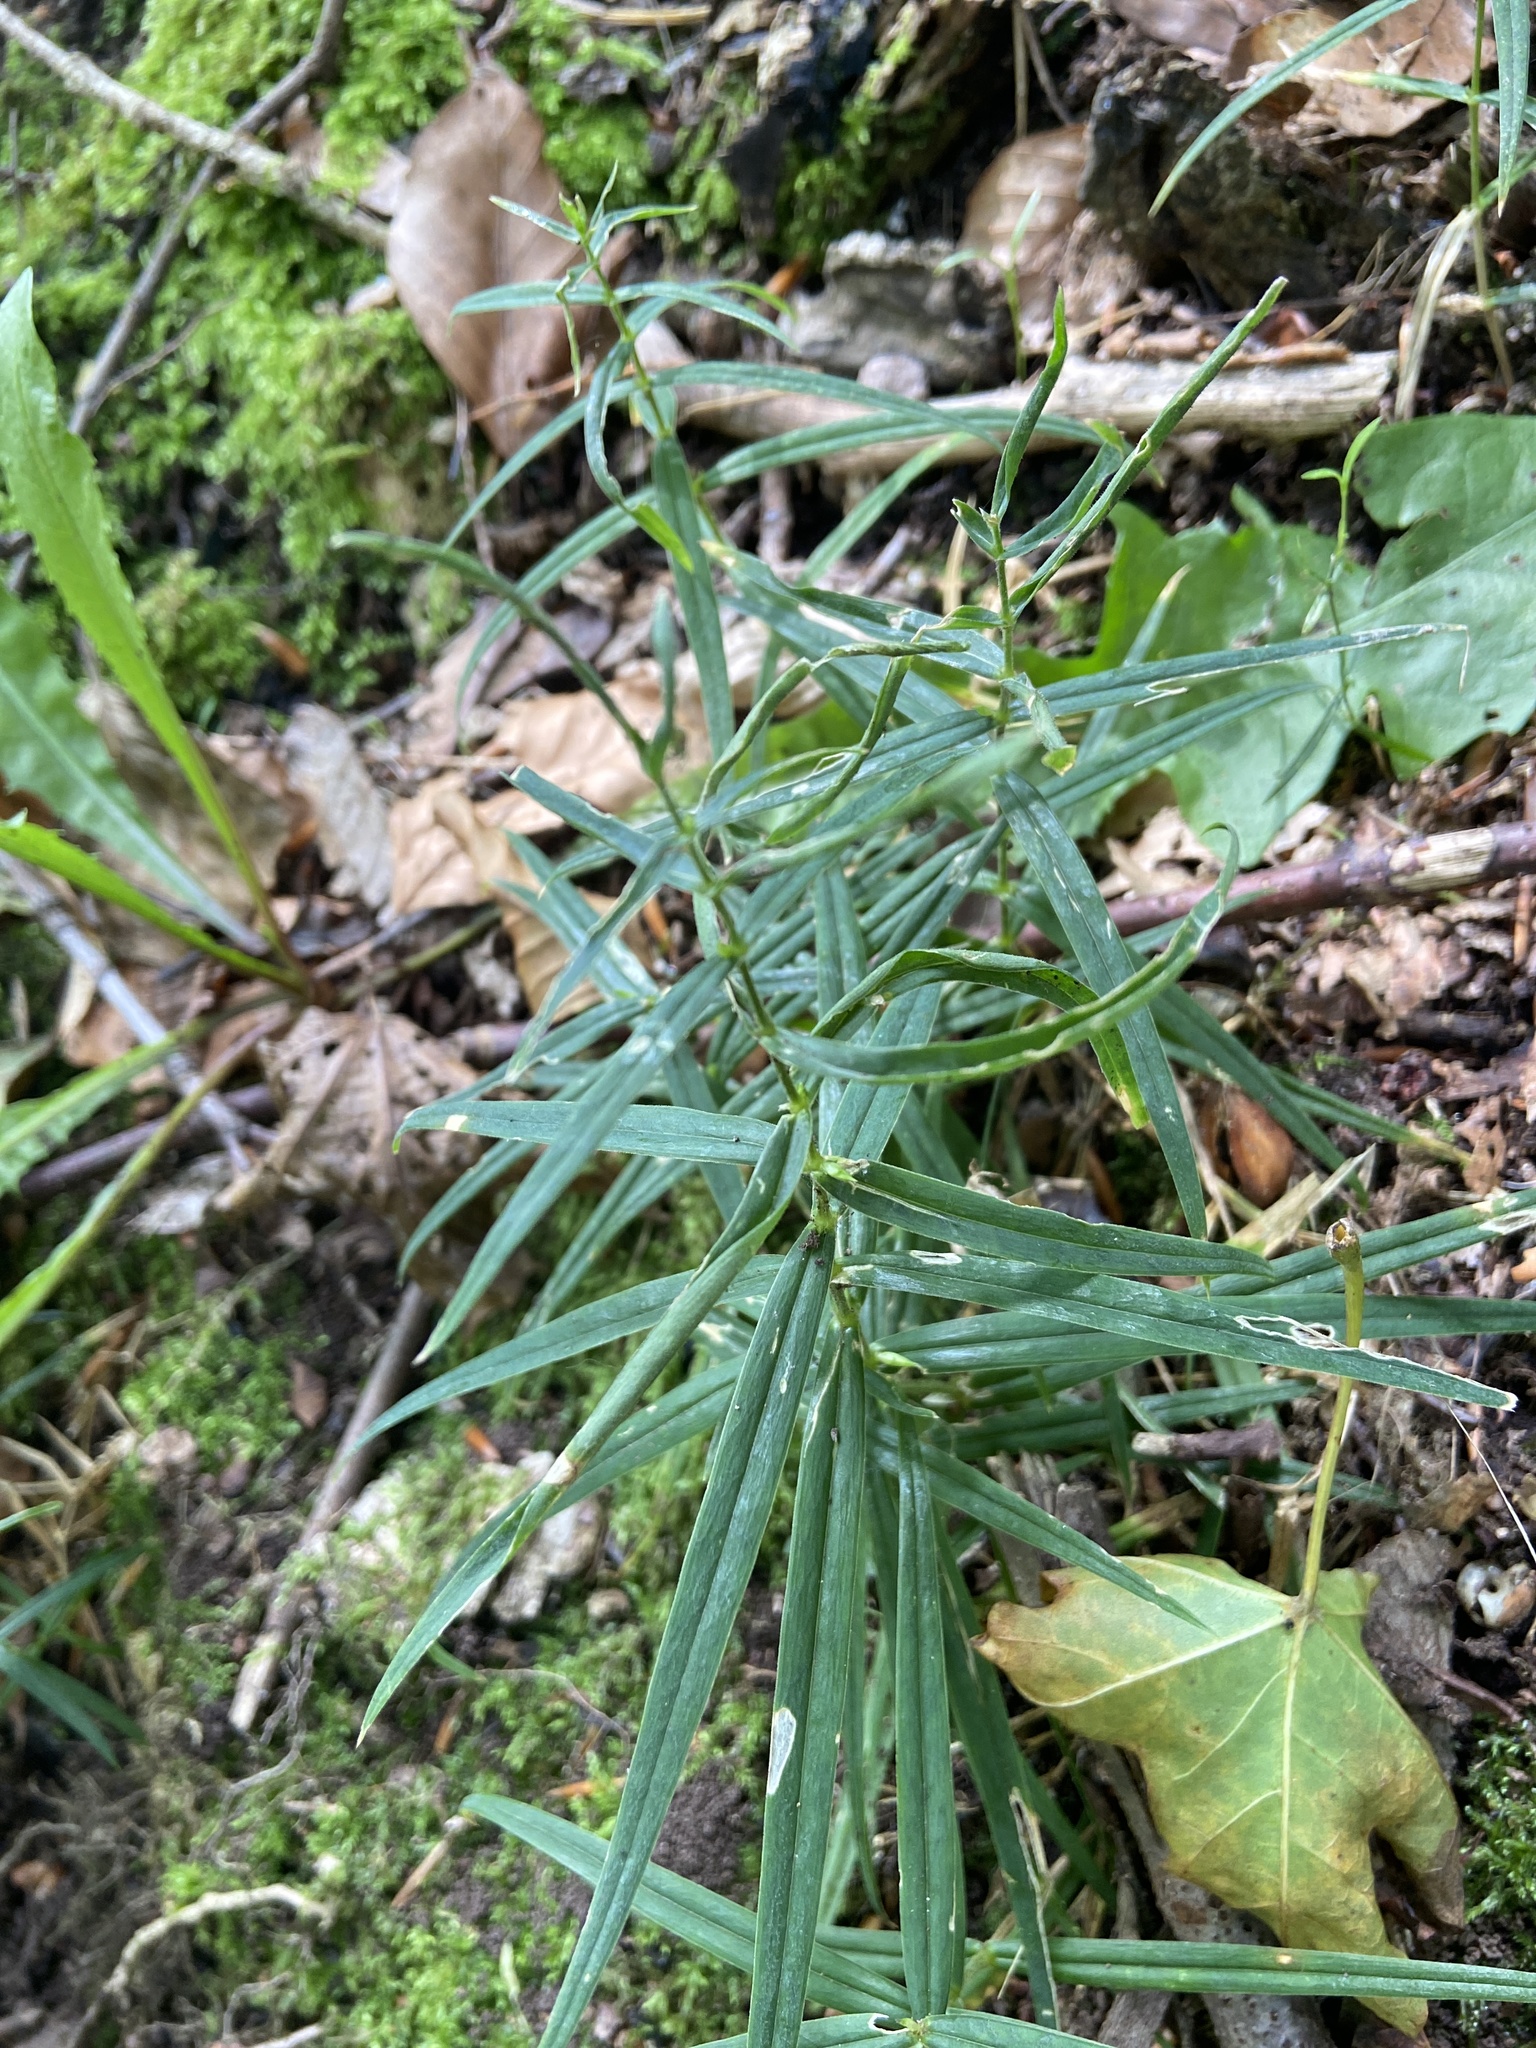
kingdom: Plantae
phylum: Tracheophyta
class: Magnoliopsida
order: Caryophyllales
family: Caryophyllaceae
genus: Rabelera
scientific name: Rabelera holostea
